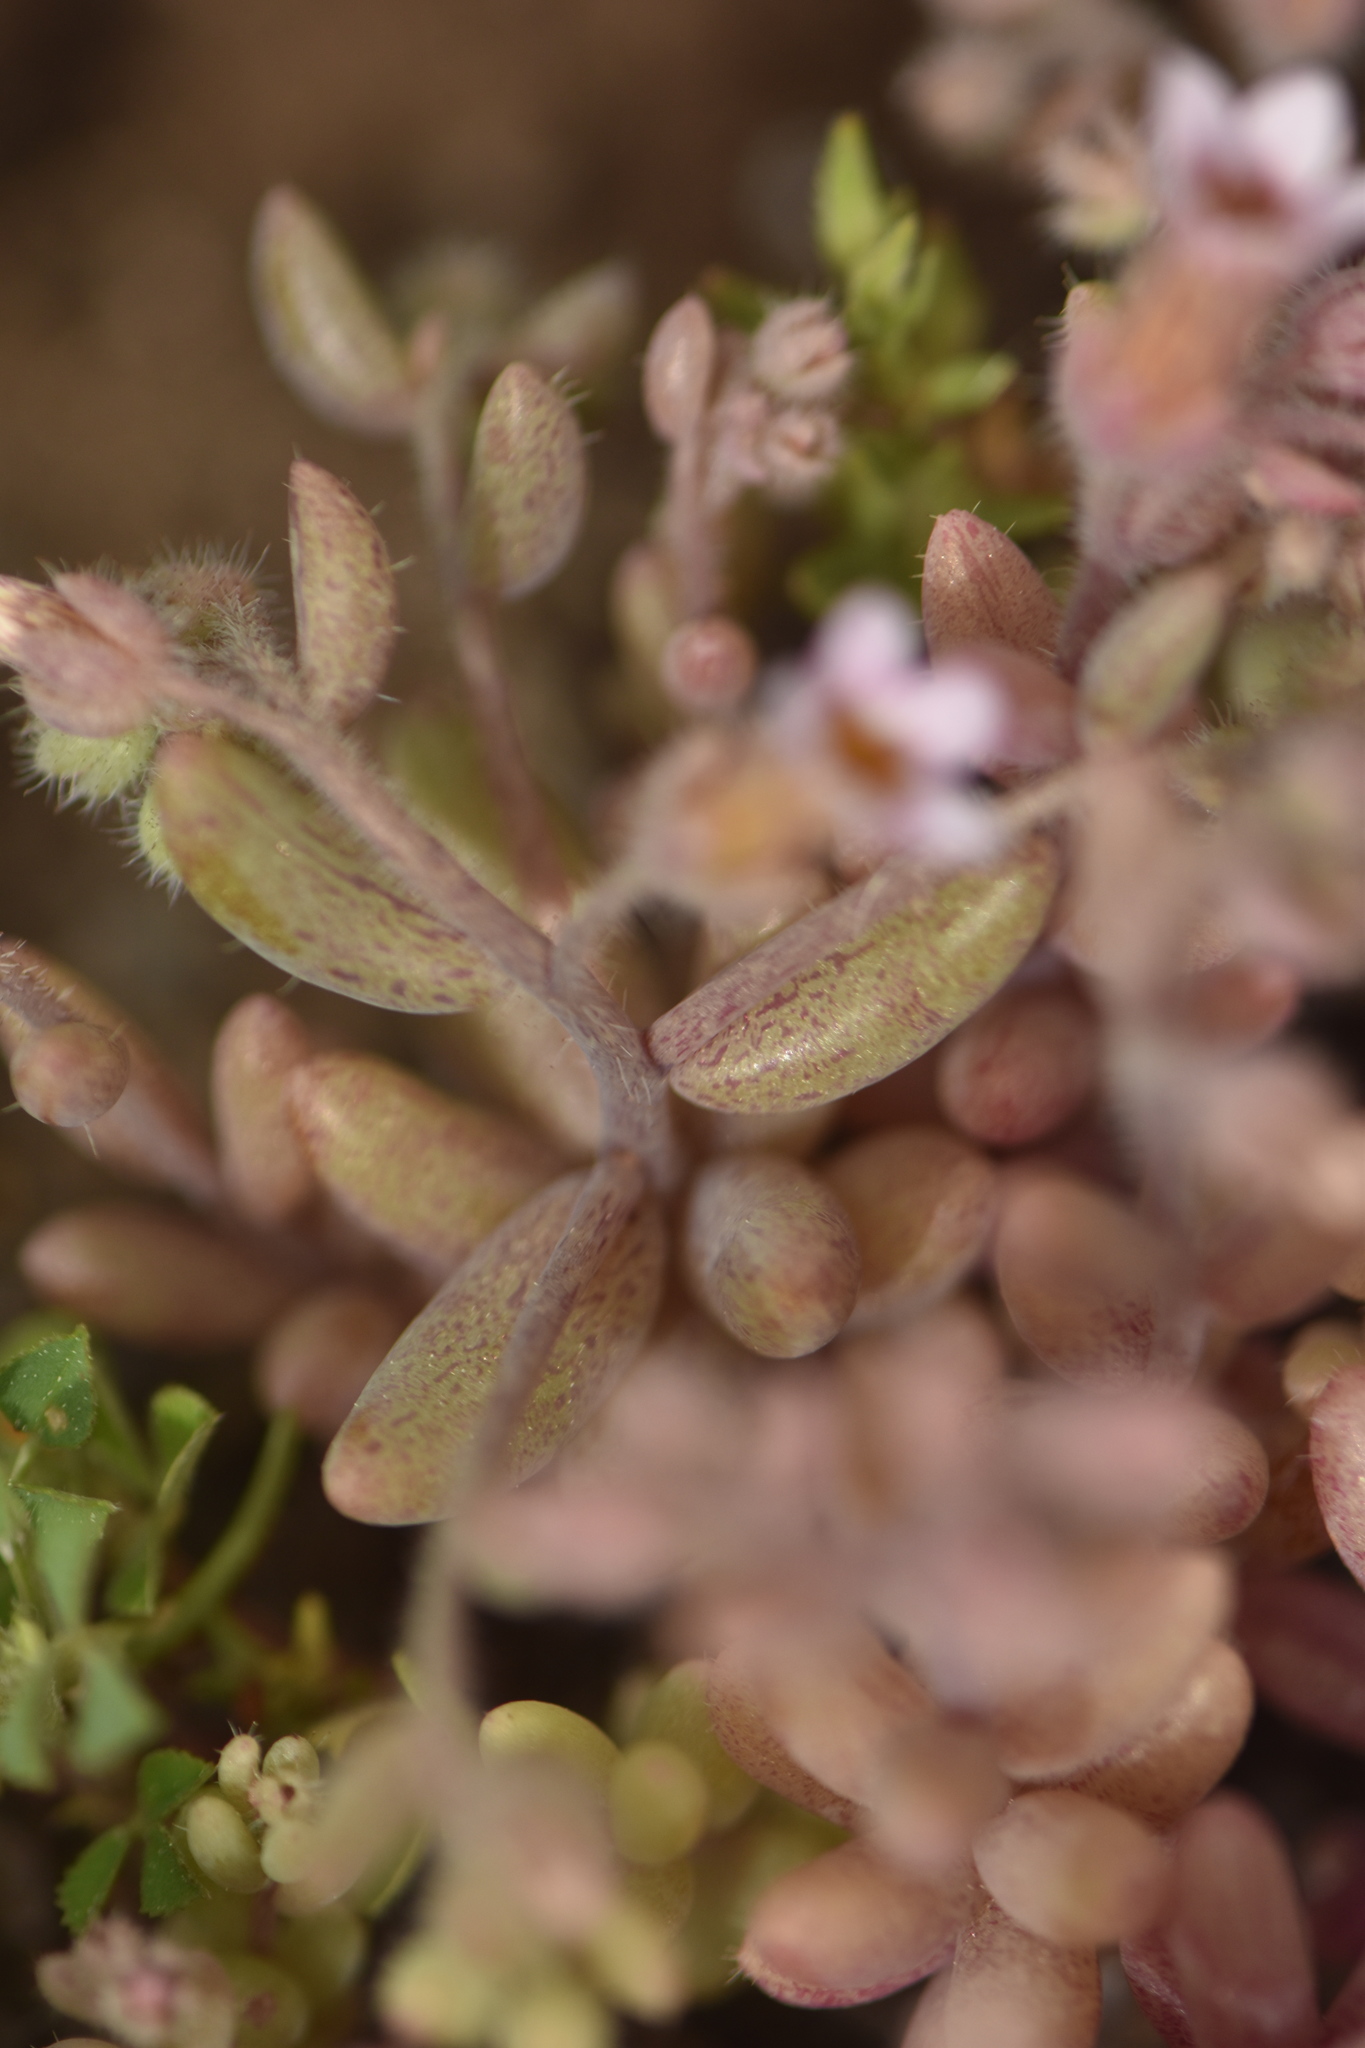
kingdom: Plantae
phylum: Tracheophyta
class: Magnoliopsida
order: Saxifragales
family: Crassulaceae
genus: Sedum
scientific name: Sedum mucizonia
